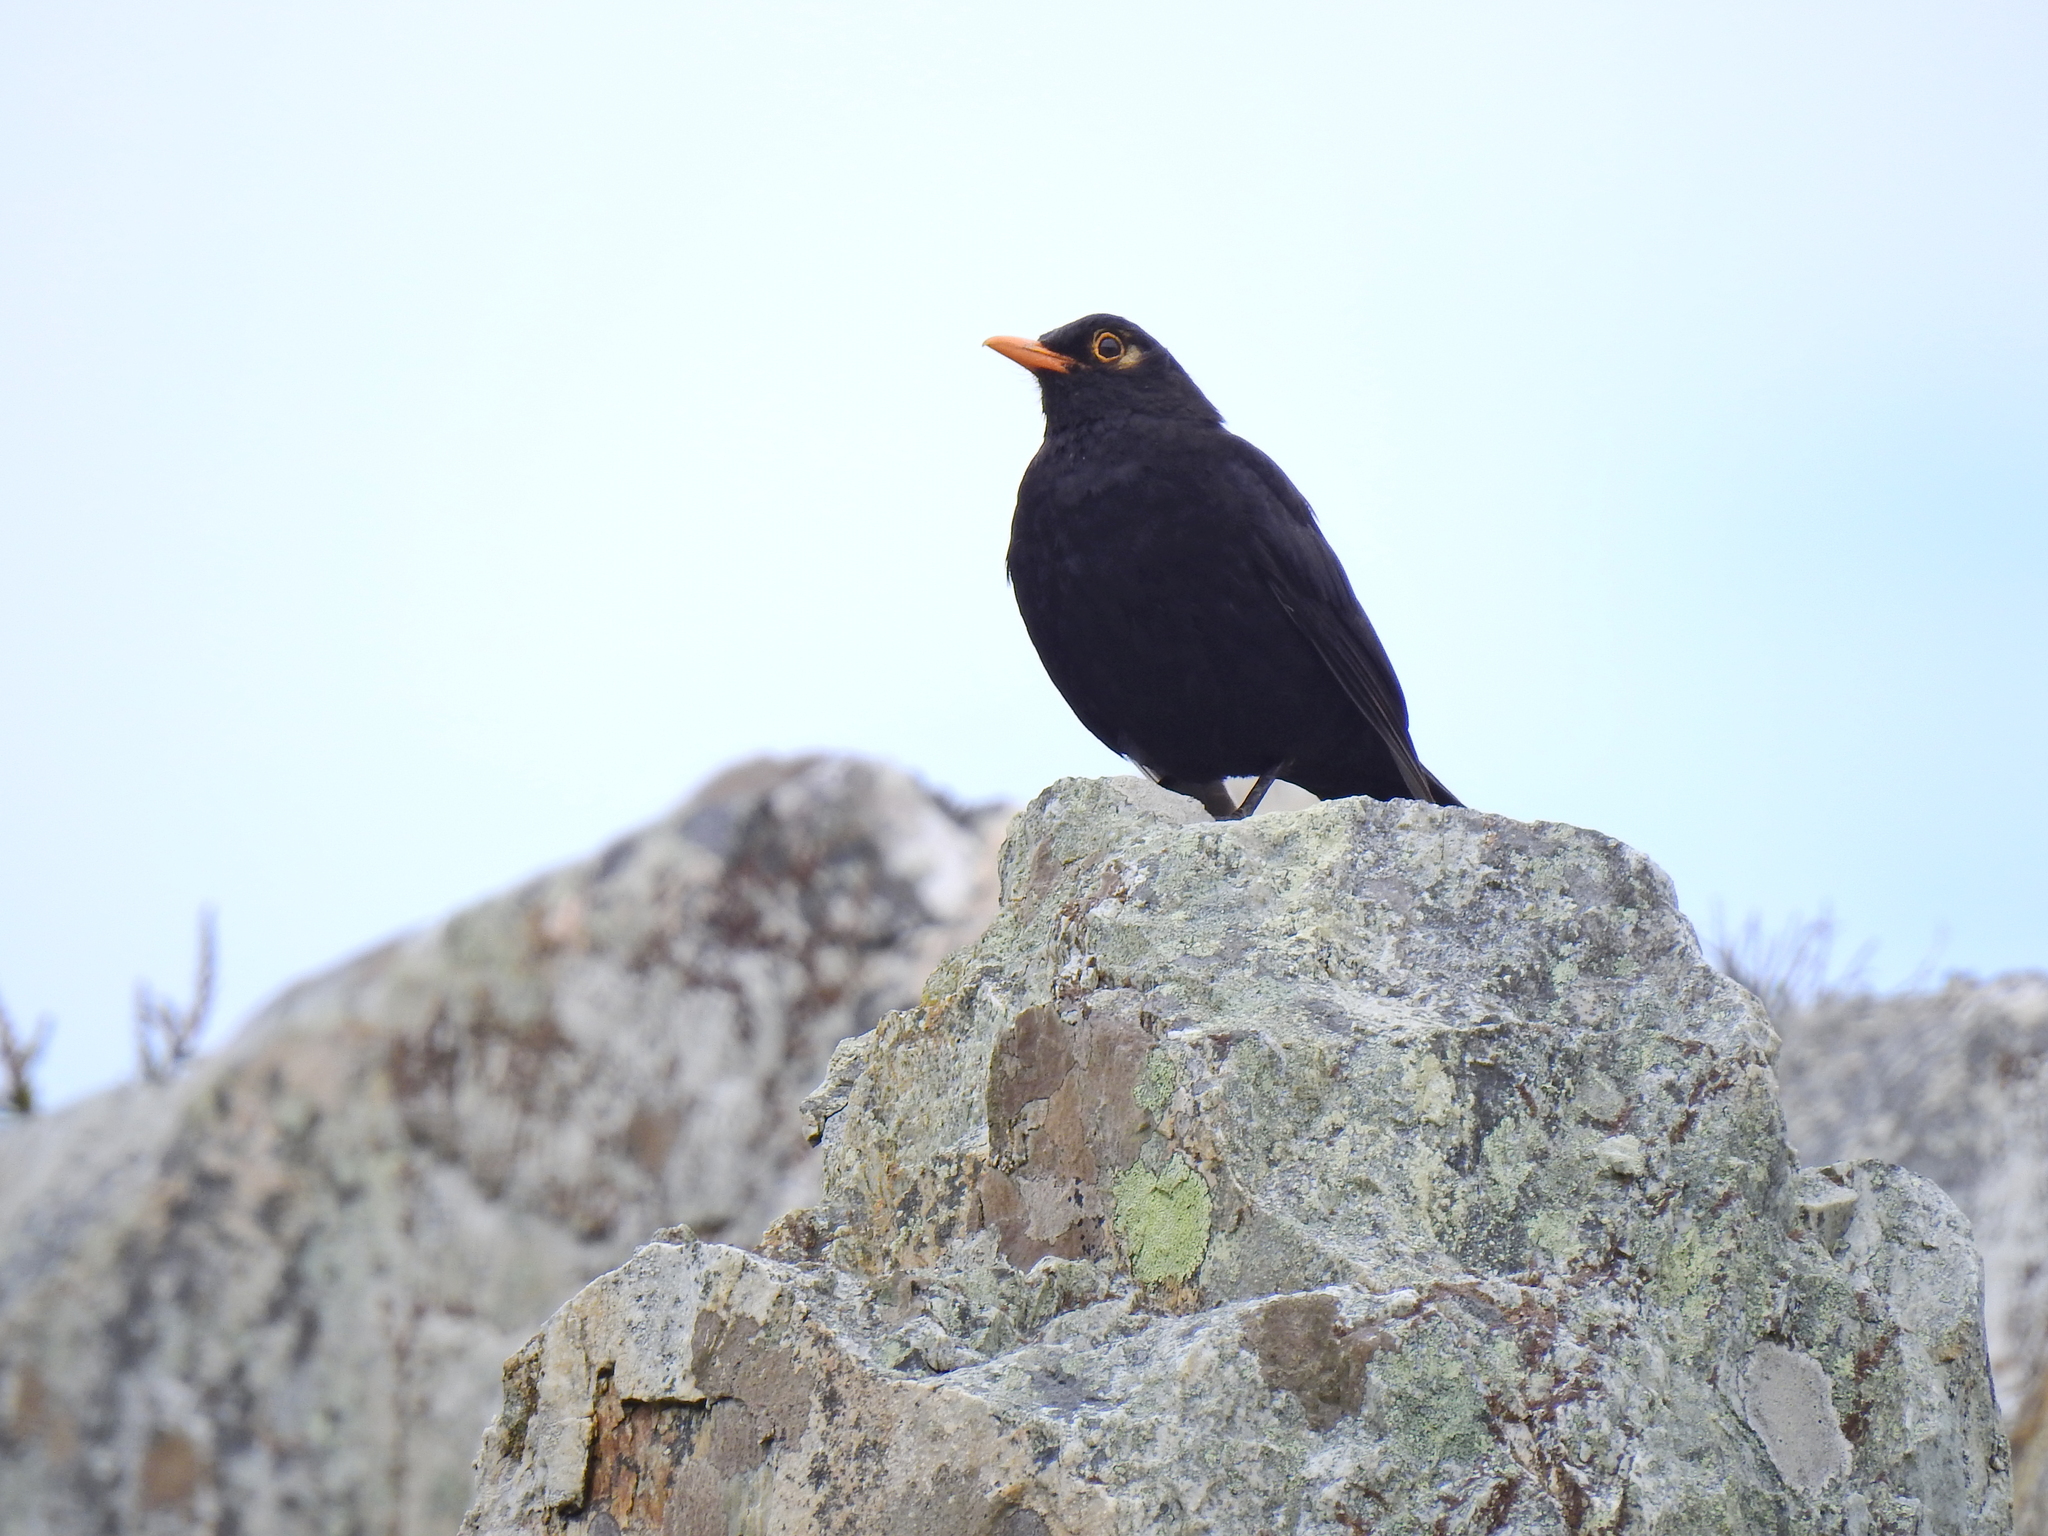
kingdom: Animalia
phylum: Chordata
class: Aves
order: Passeriformes
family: Turdidae
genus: Turdus
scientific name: Turdus merula
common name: Common blackbird
